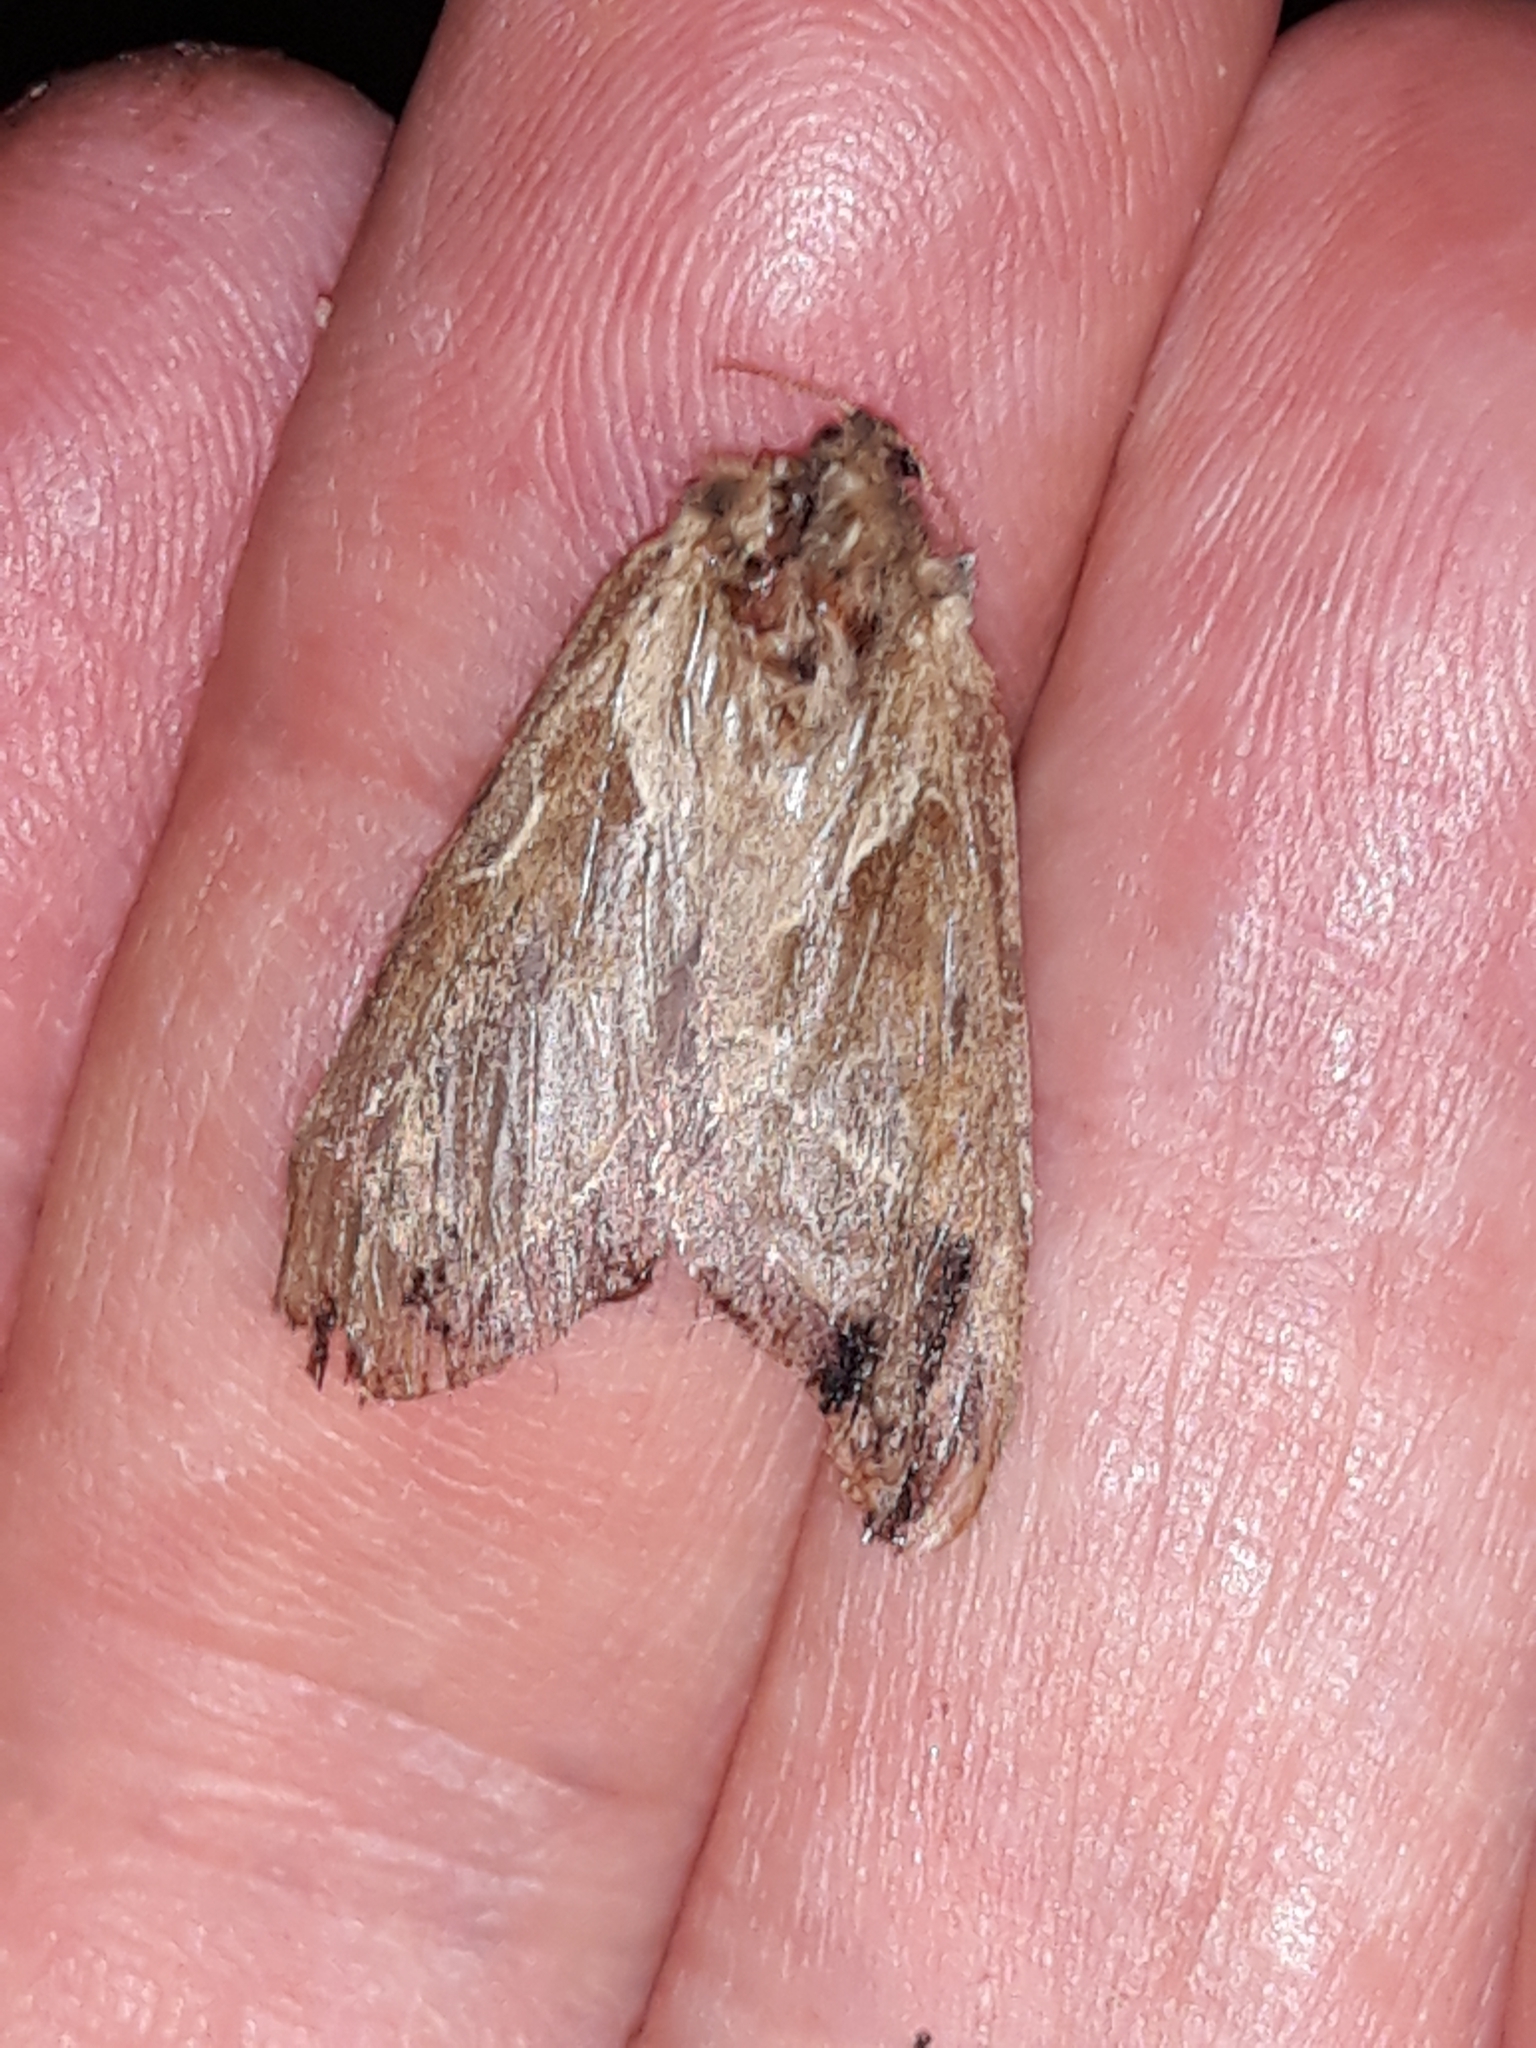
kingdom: Animalia
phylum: Arthropoda
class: Insecta
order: Lepidoptera
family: Hepialidae
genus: Triodia
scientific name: Triodia sylvina
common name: Orange swift
